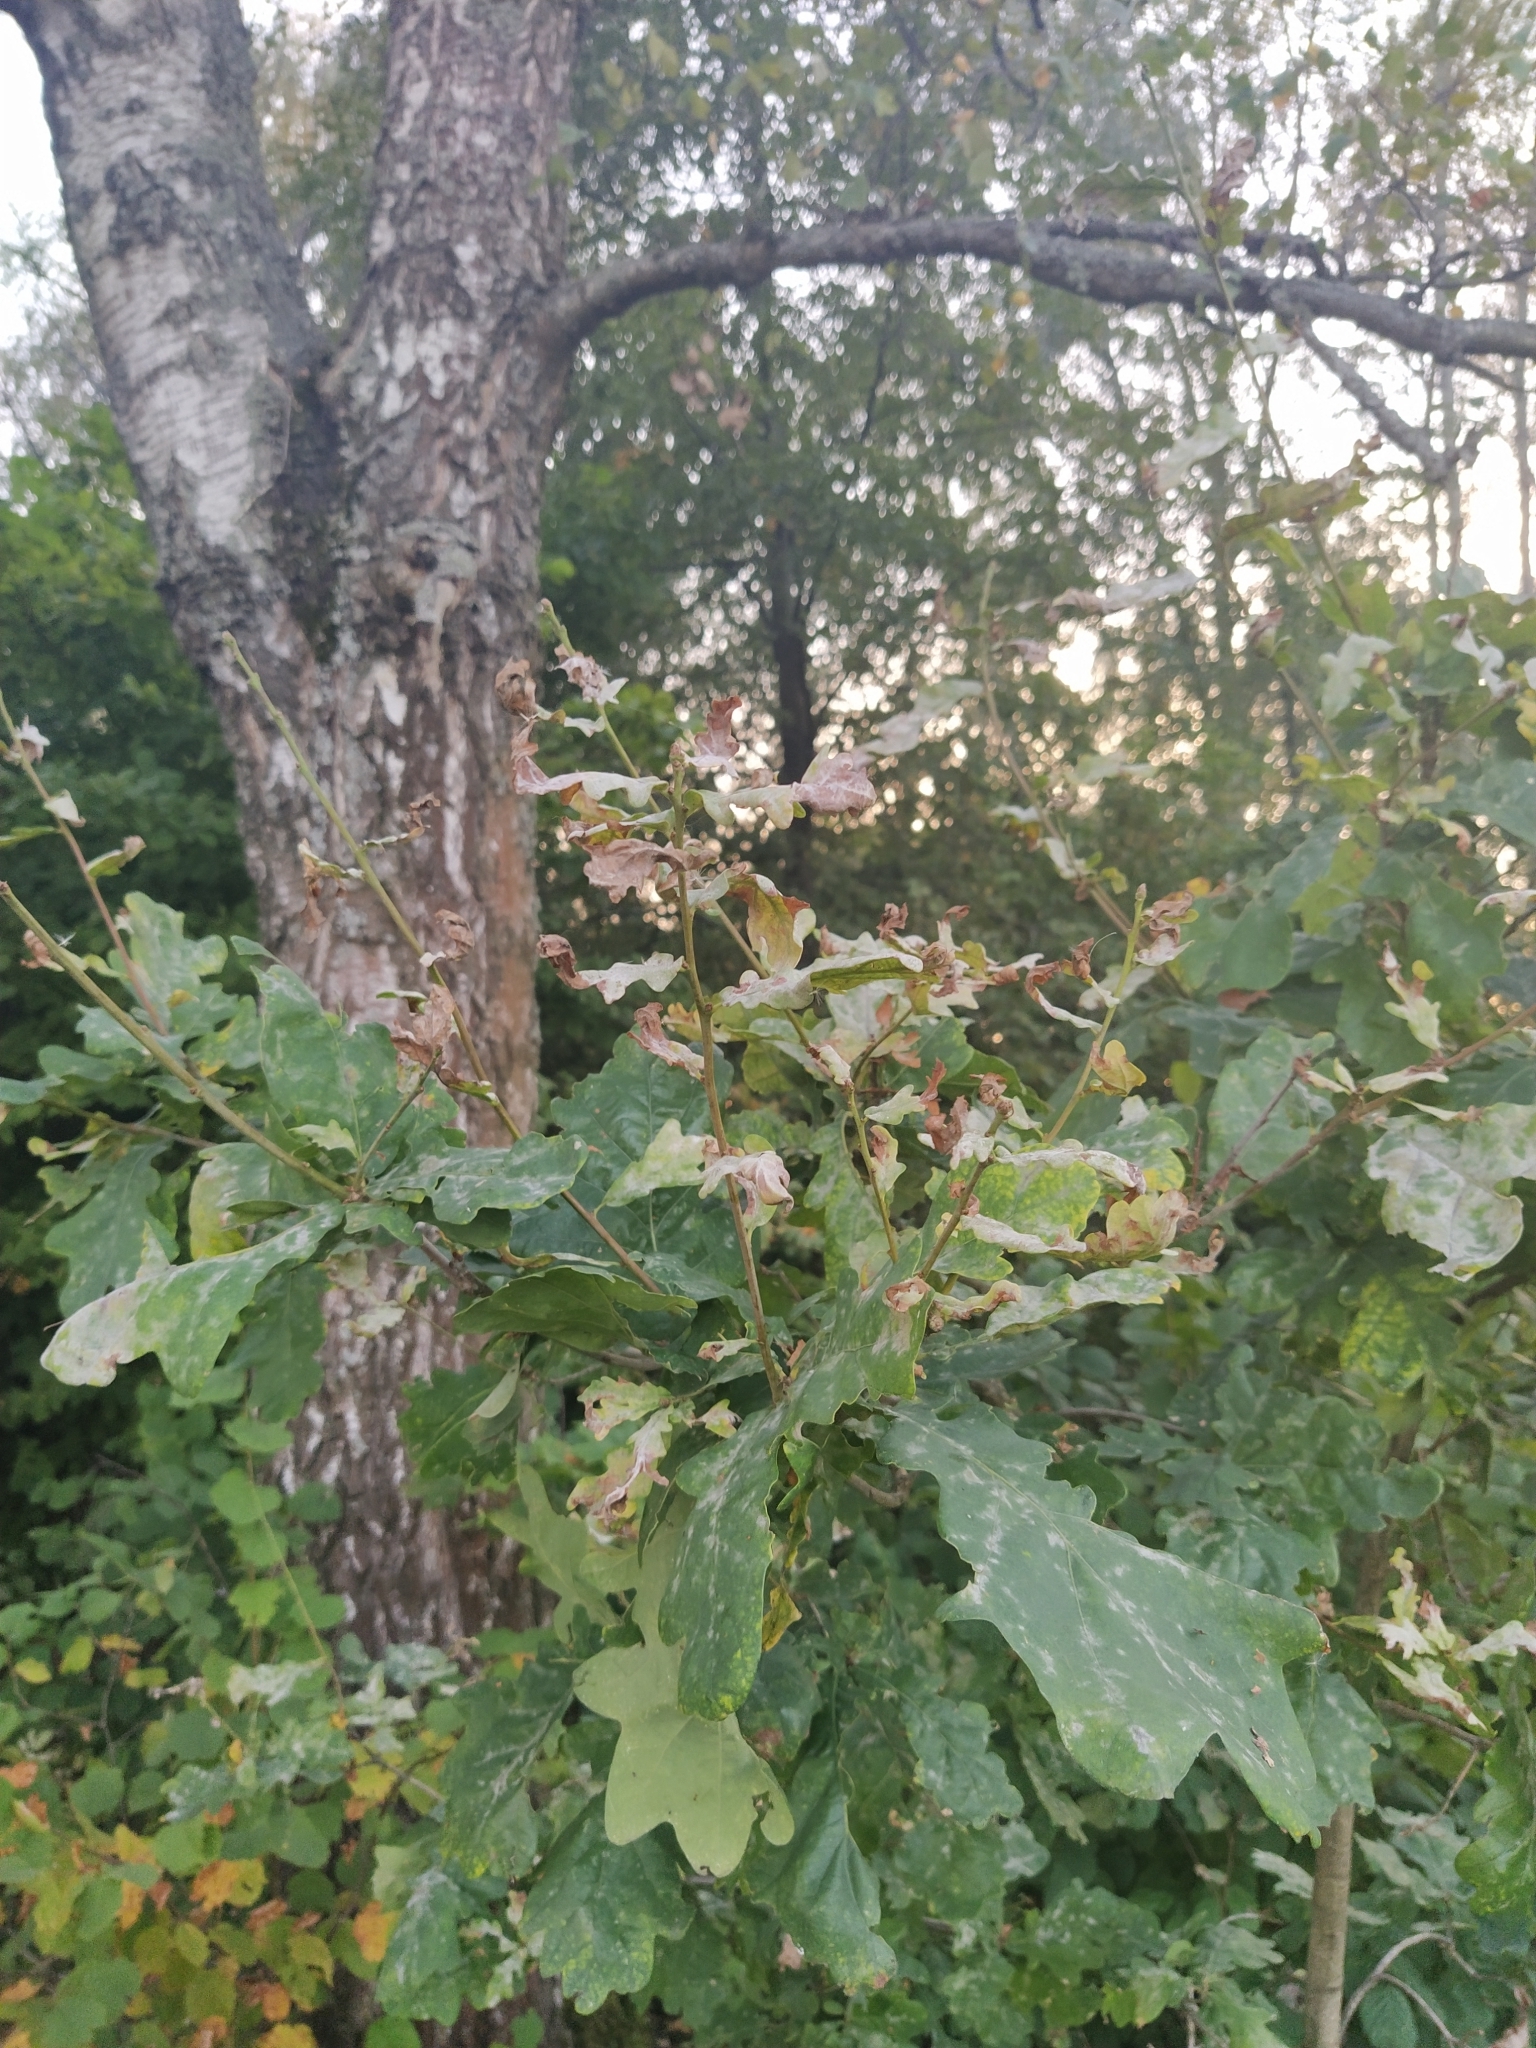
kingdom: Plantae
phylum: Tracheophyta
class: Magnoliopsida
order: Fagales
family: Fagaceae
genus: Quercus
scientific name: Quercus robur
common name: Pedunculate oak
